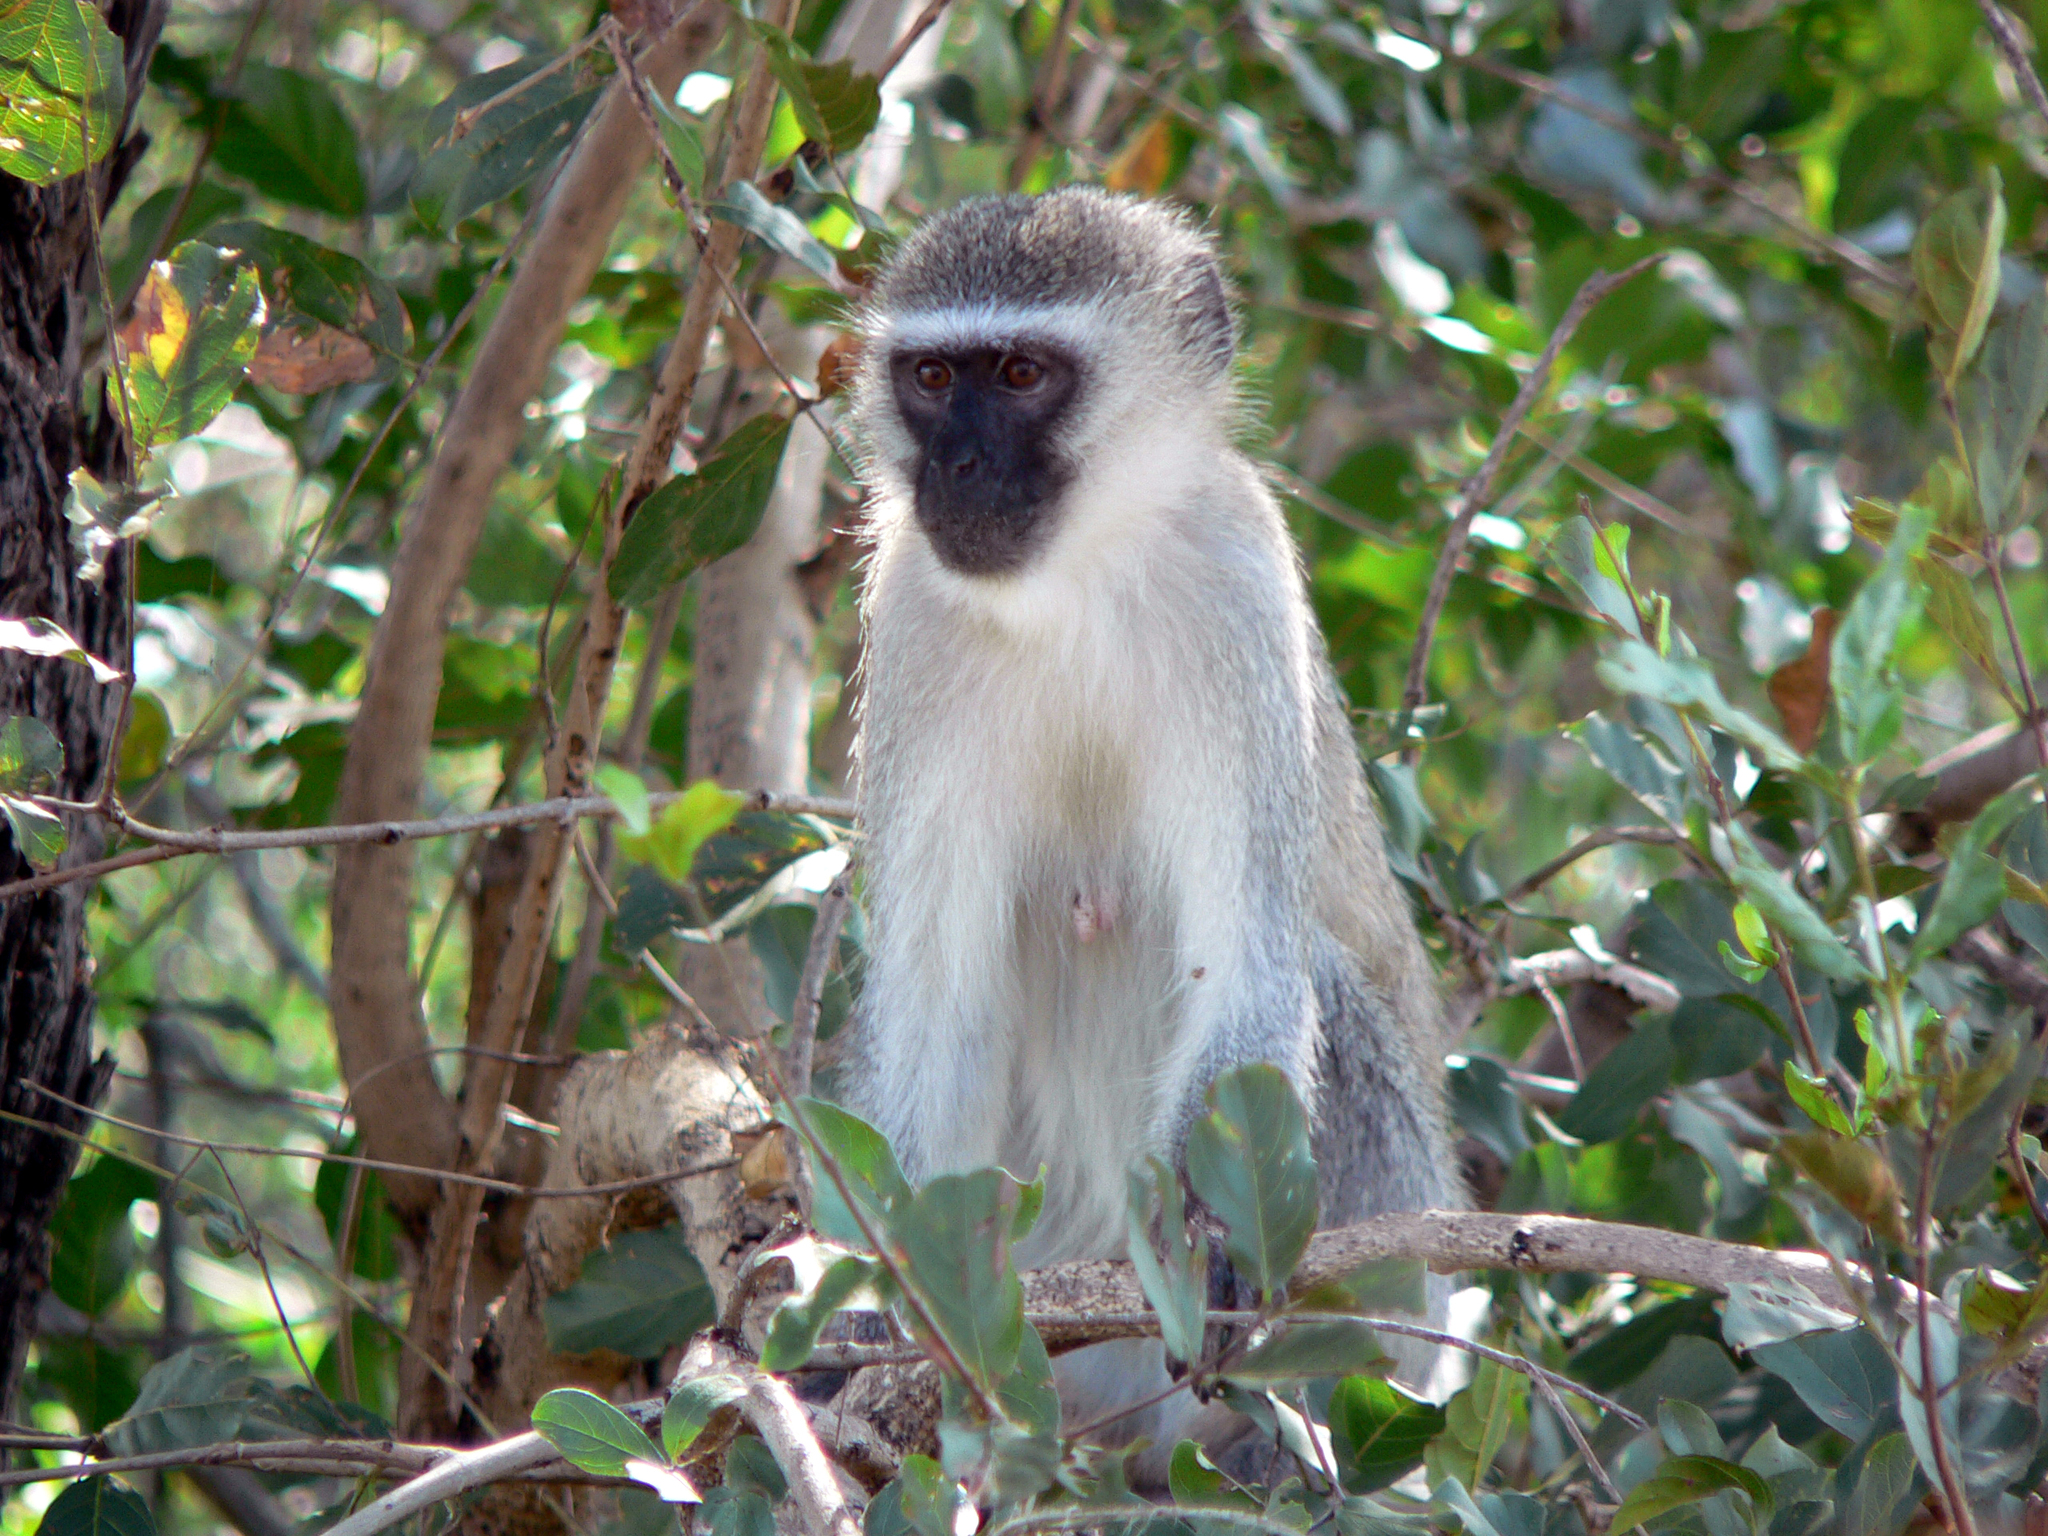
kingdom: Animalia
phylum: Chordata
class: Mammalia
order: Primates
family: Cercopithecidae
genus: Chlorocebus
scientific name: Chlorocebus pygerythrus
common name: Vervet monkey
